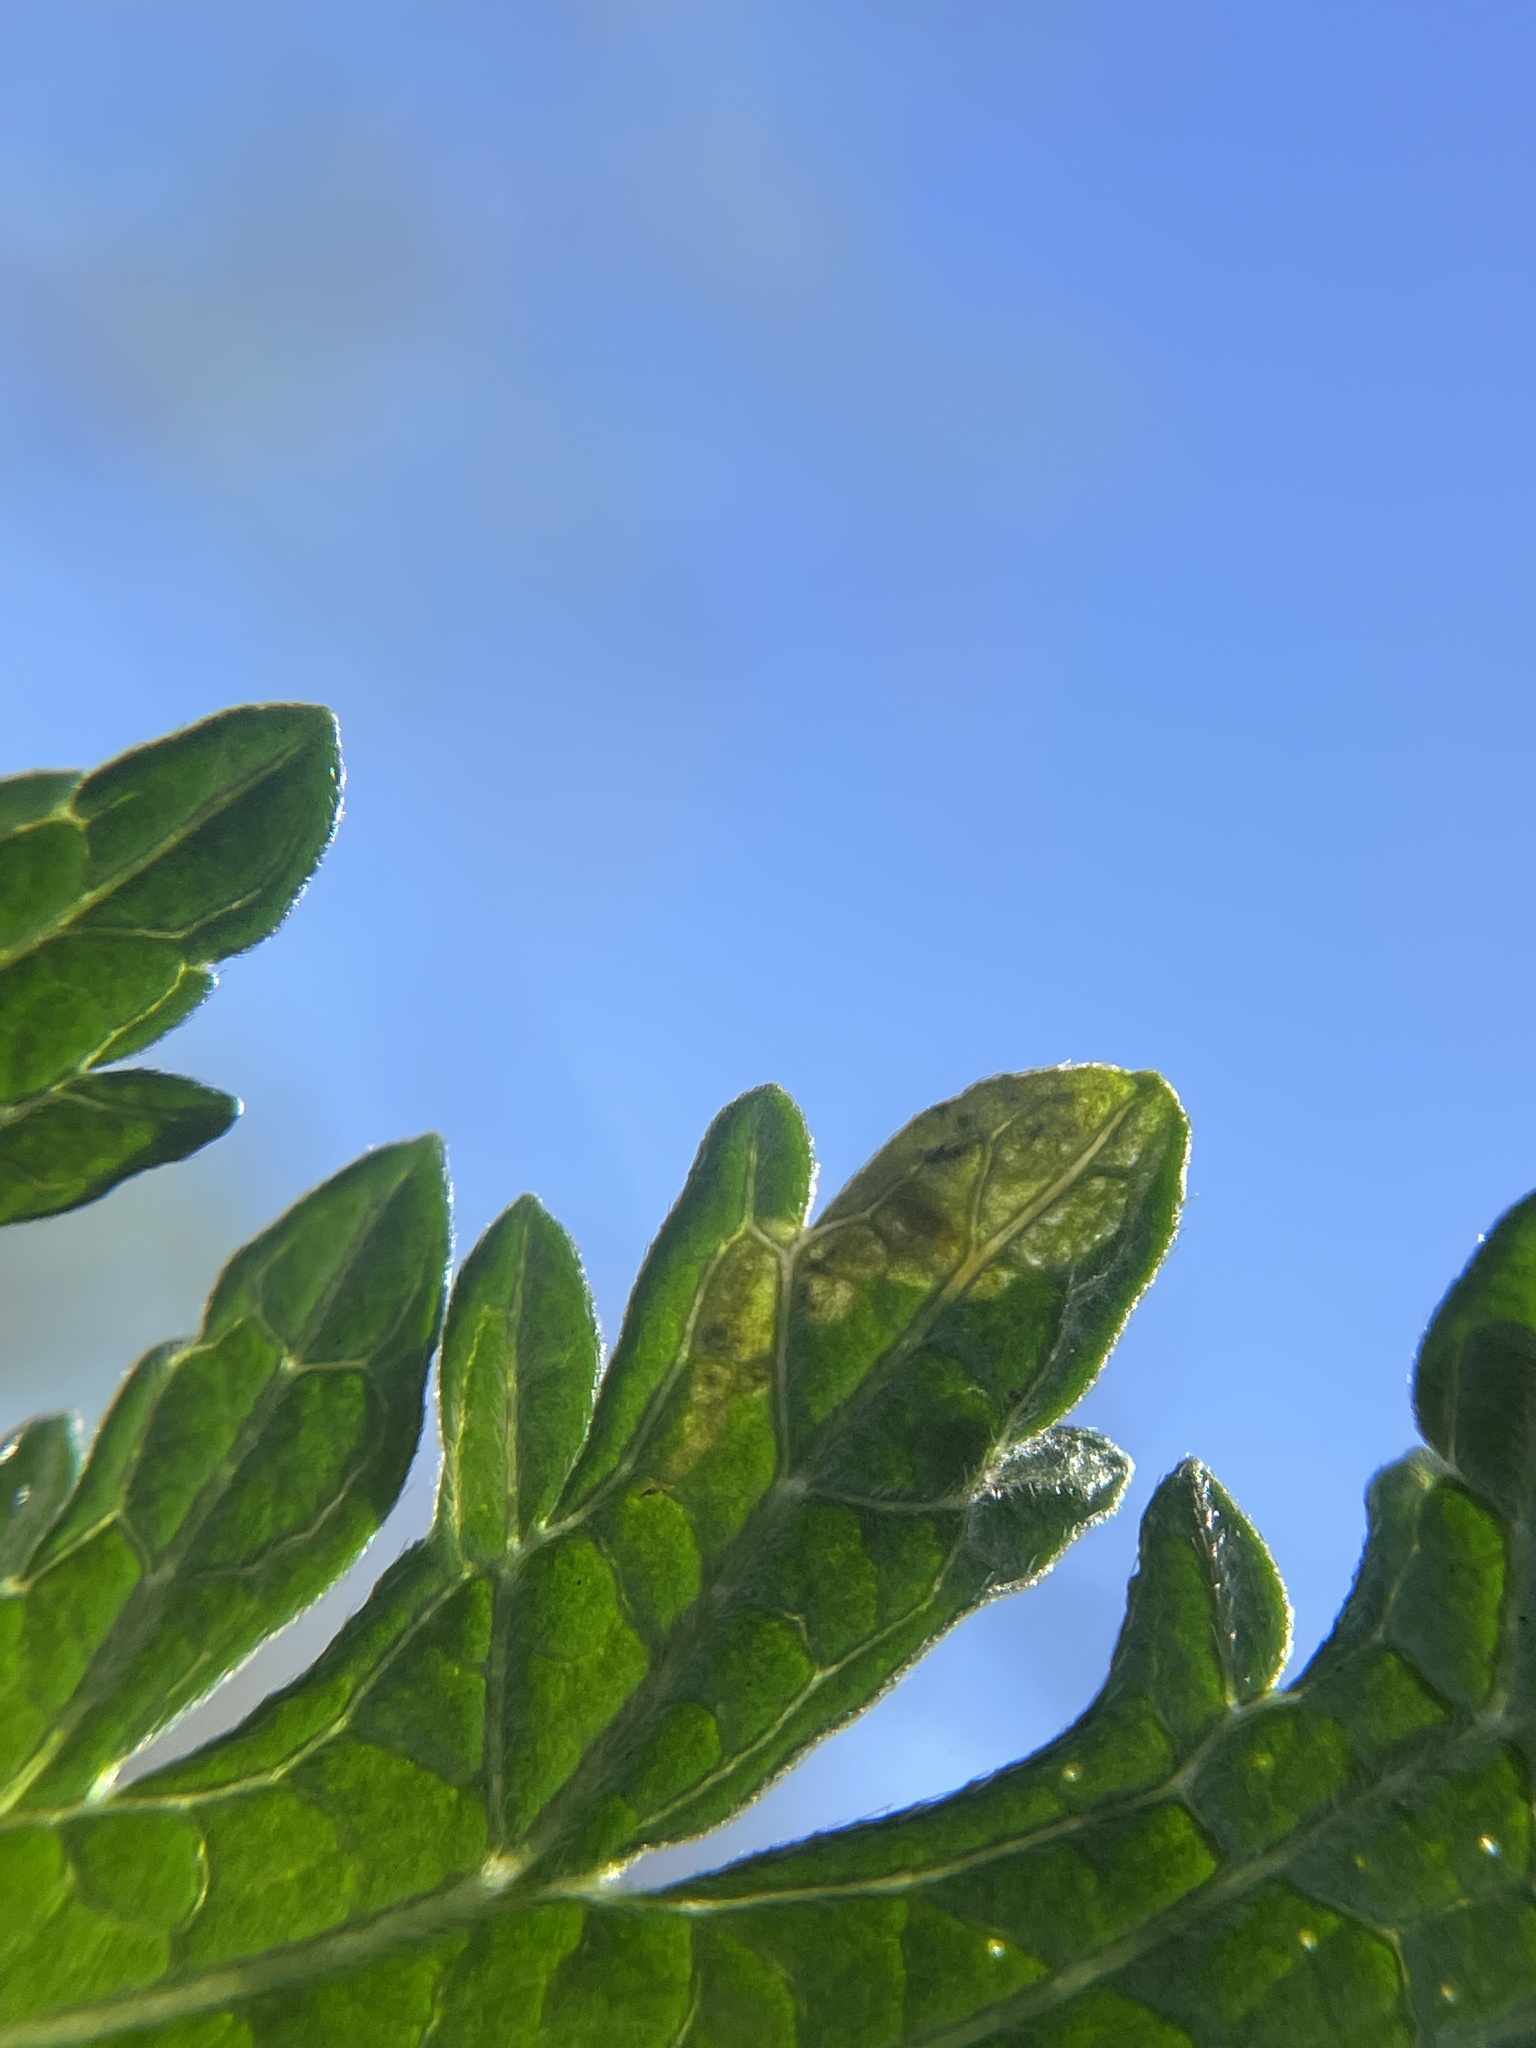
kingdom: Animalia
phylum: Arthropoda
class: Insecta
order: Diptera
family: Agromyzidae
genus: Calycomyza
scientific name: Calycomyza verbenae
